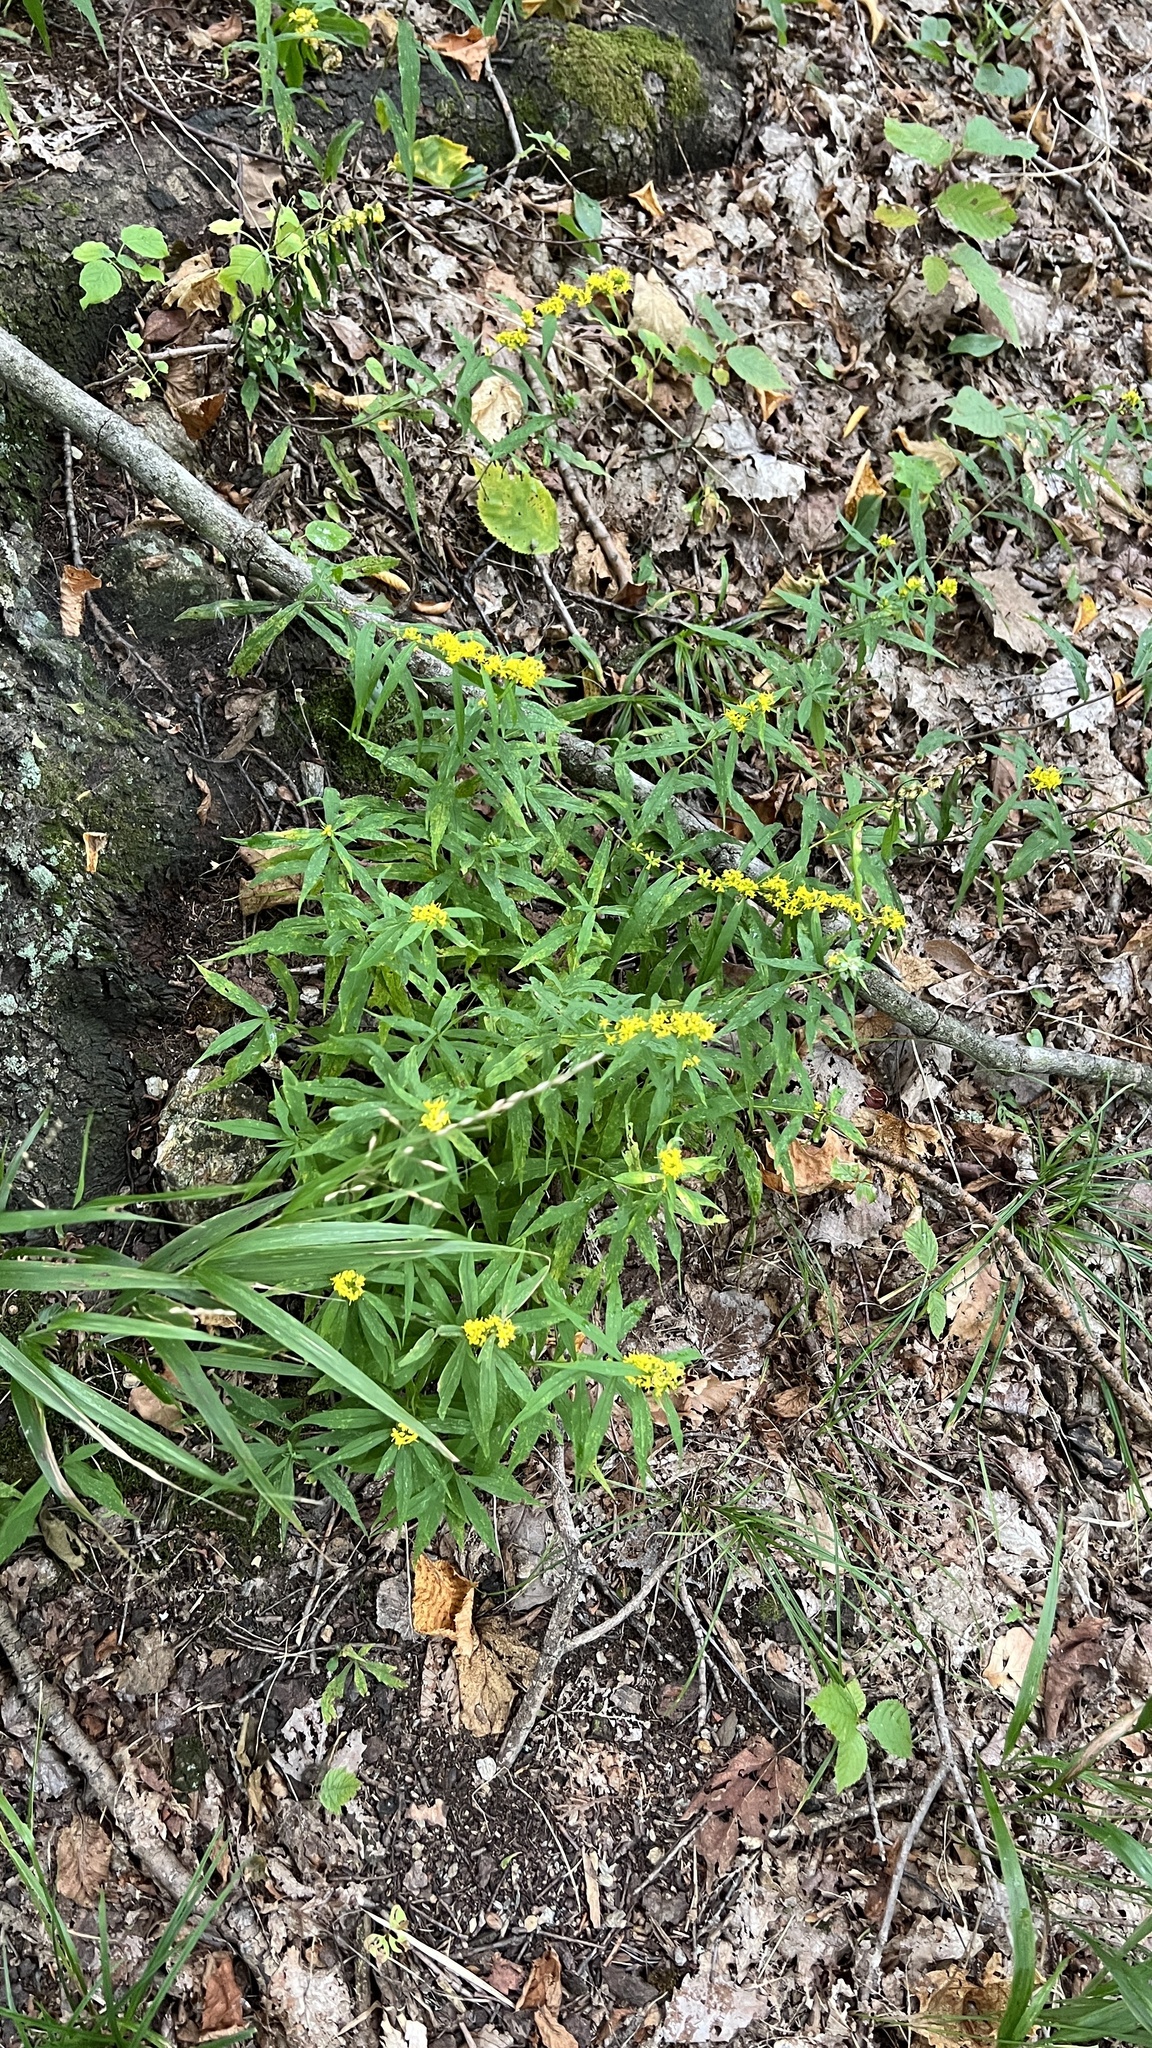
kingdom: Plantae
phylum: Tracheophyta
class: Magnoliopsida
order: Asterales
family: Asteraceae
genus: Solidago
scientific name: Solidago caesia
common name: Woodland goldenrod
